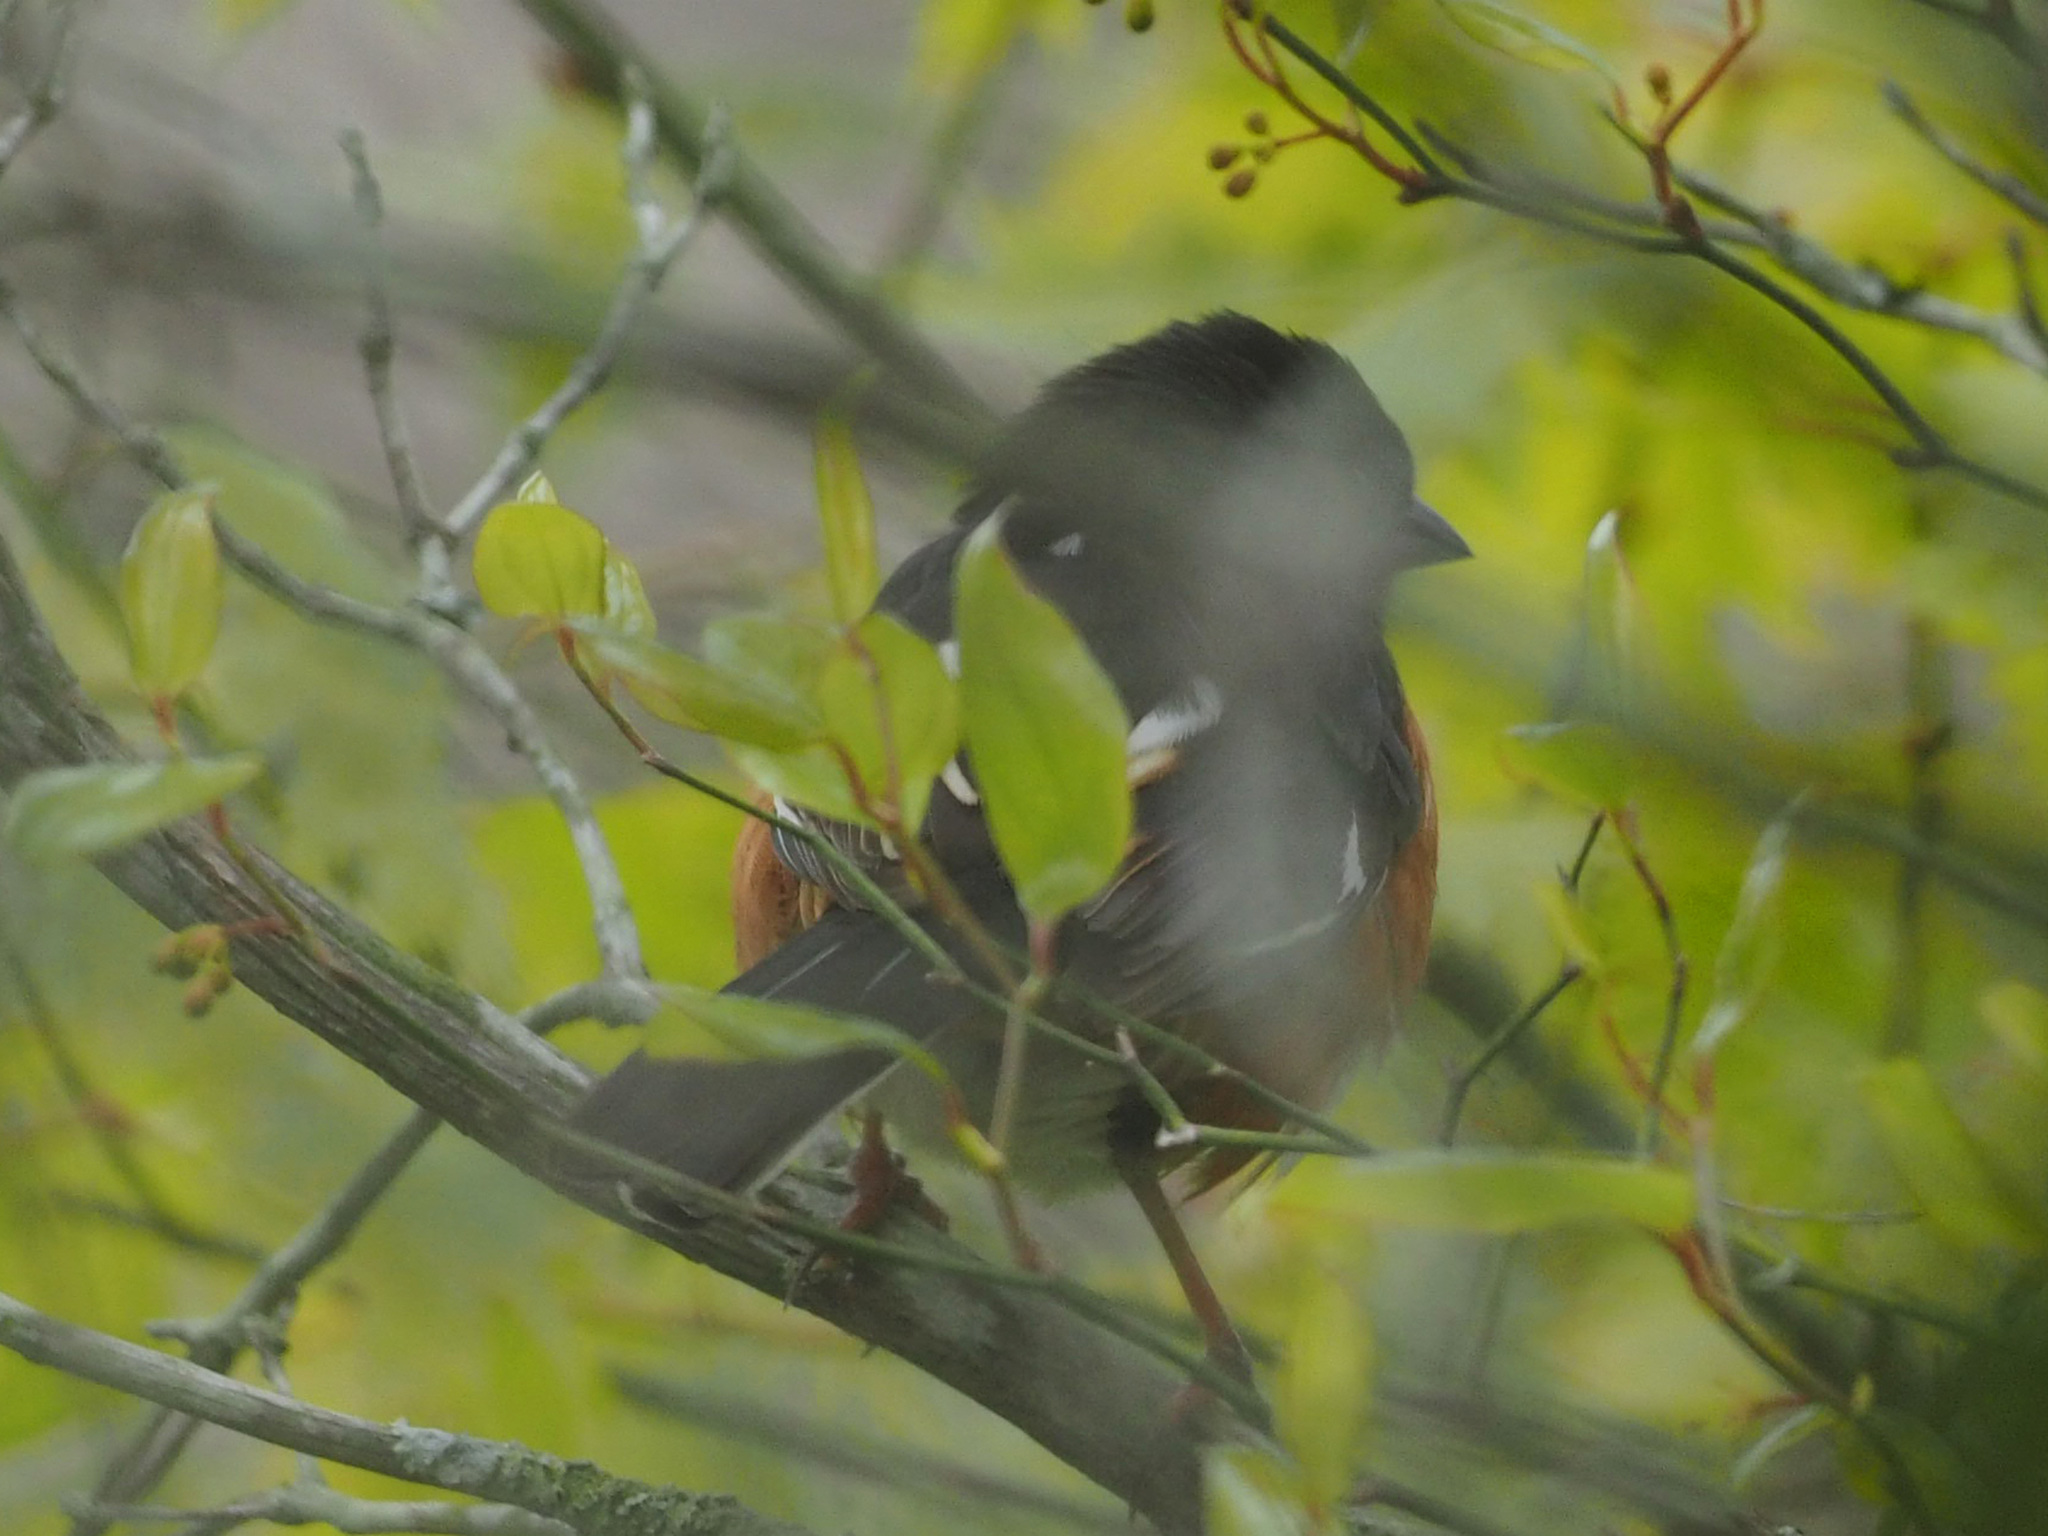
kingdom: Animalia
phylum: Chordata
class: Aves
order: Passeriformes
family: Passerellidae
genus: Pipilo
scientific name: Pipilo erythrophthalmus
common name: Eastern towhee
